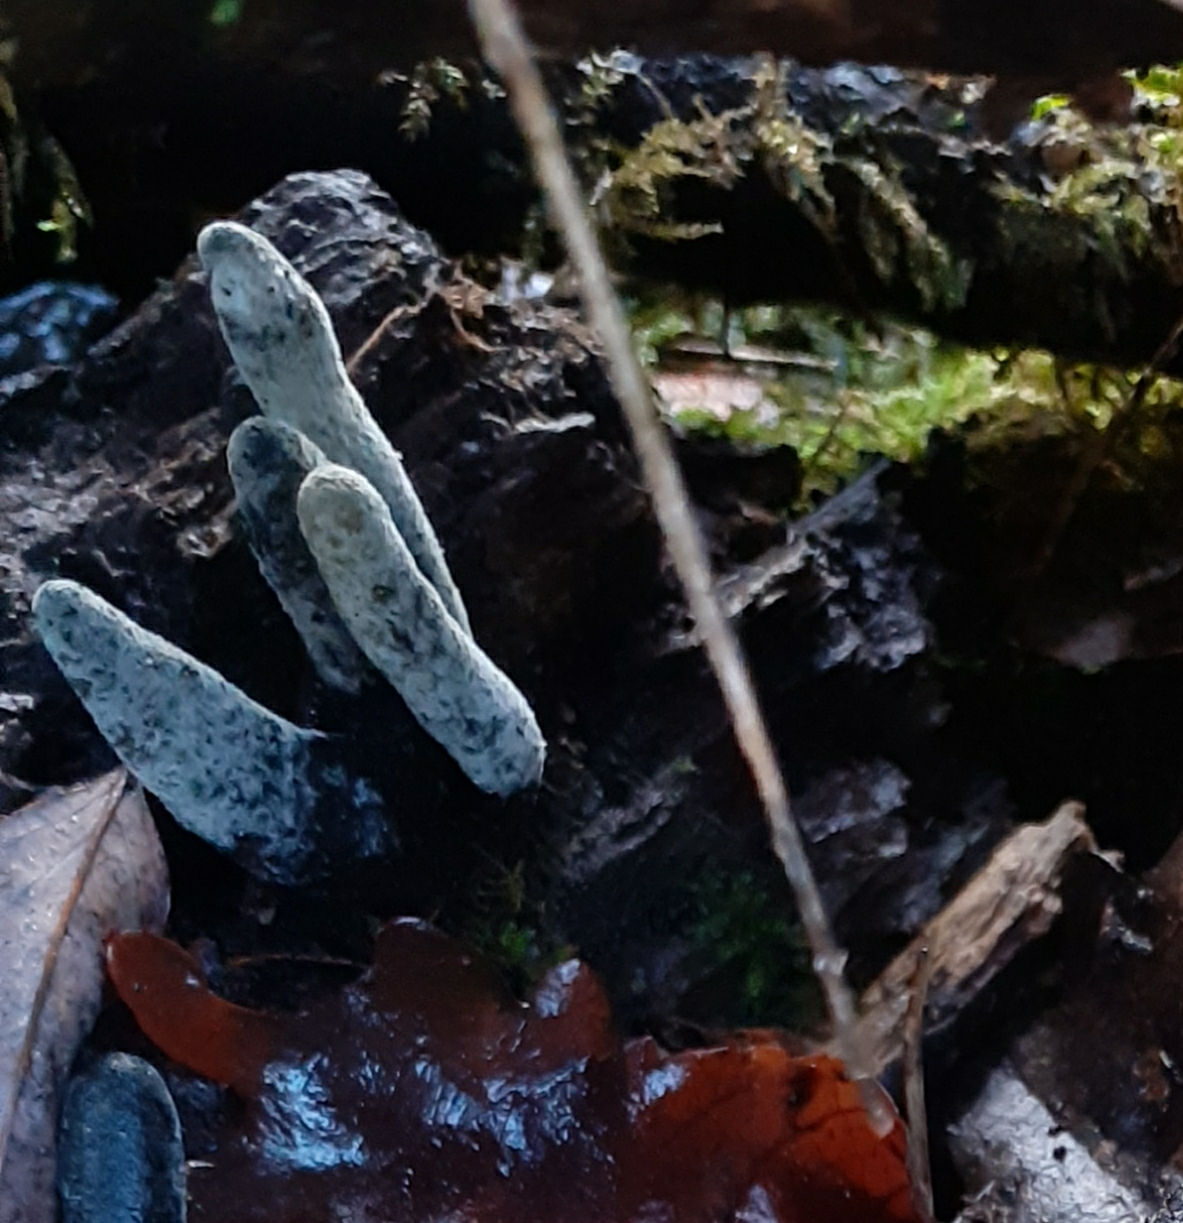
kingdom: Fungi
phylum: Ascomycota
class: Sordariomycetes
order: Xylariales
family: Xylariaceae
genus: Xylaria
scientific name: Xylaria polymorpha
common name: Dead man's fingers
